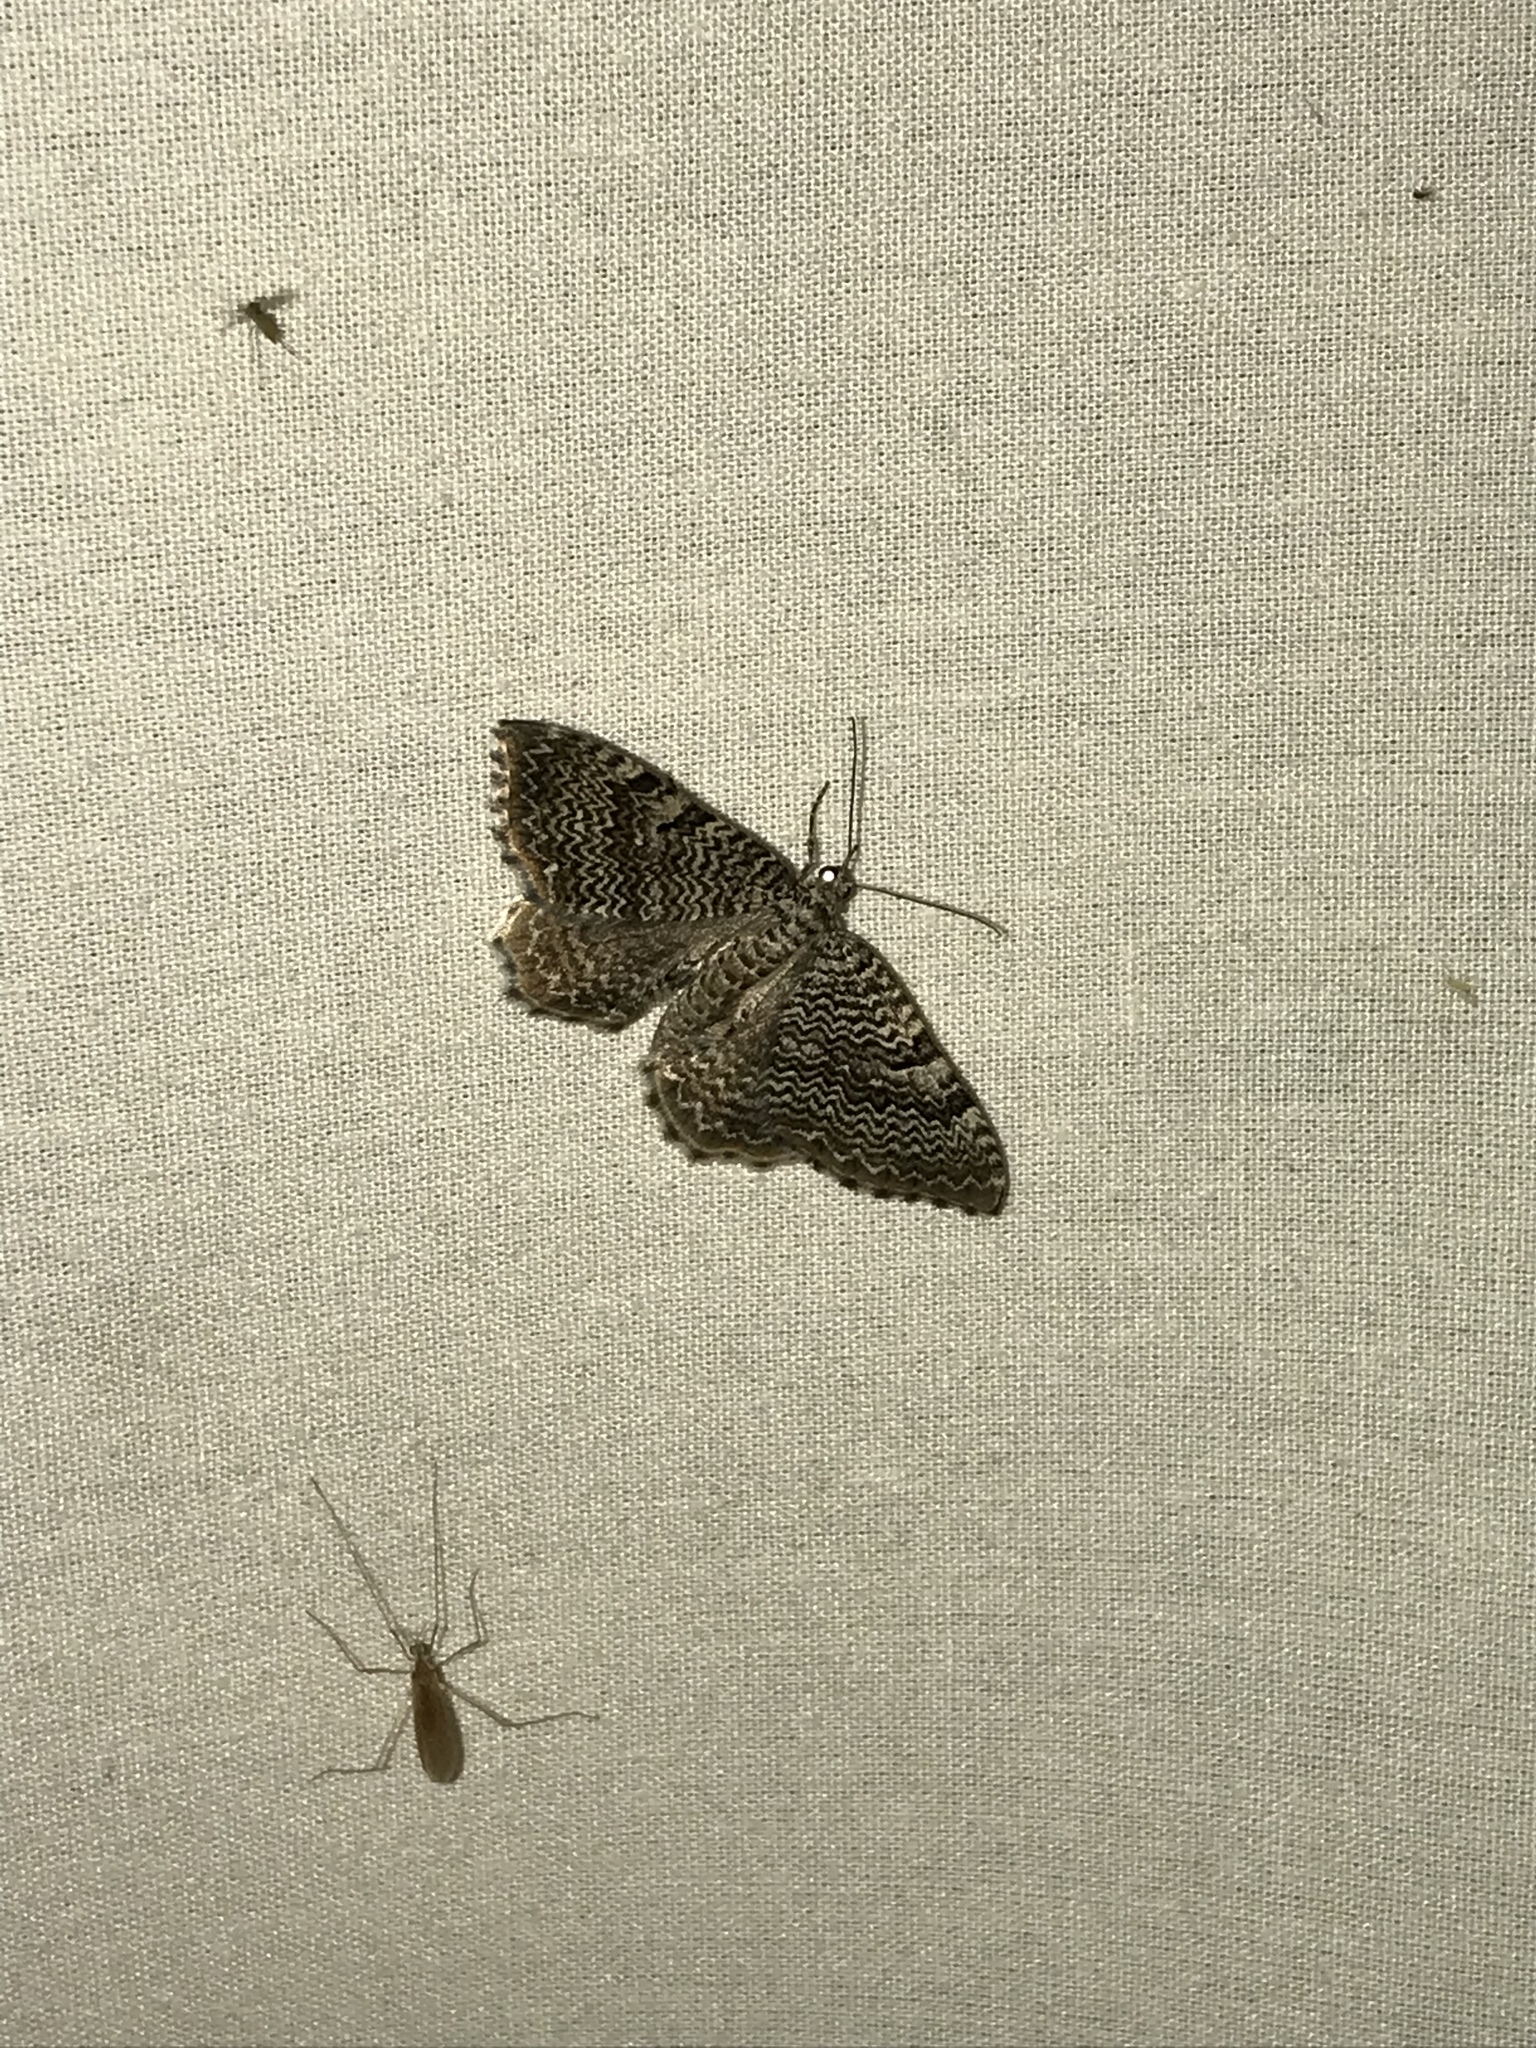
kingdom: Animalia
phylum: Arthropoda
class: Insecta
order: Lepidoptera
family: Geometridae
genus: Rheumaptera
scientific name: Rheumaptera prunivorata
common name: Cherry scallop shell moth
